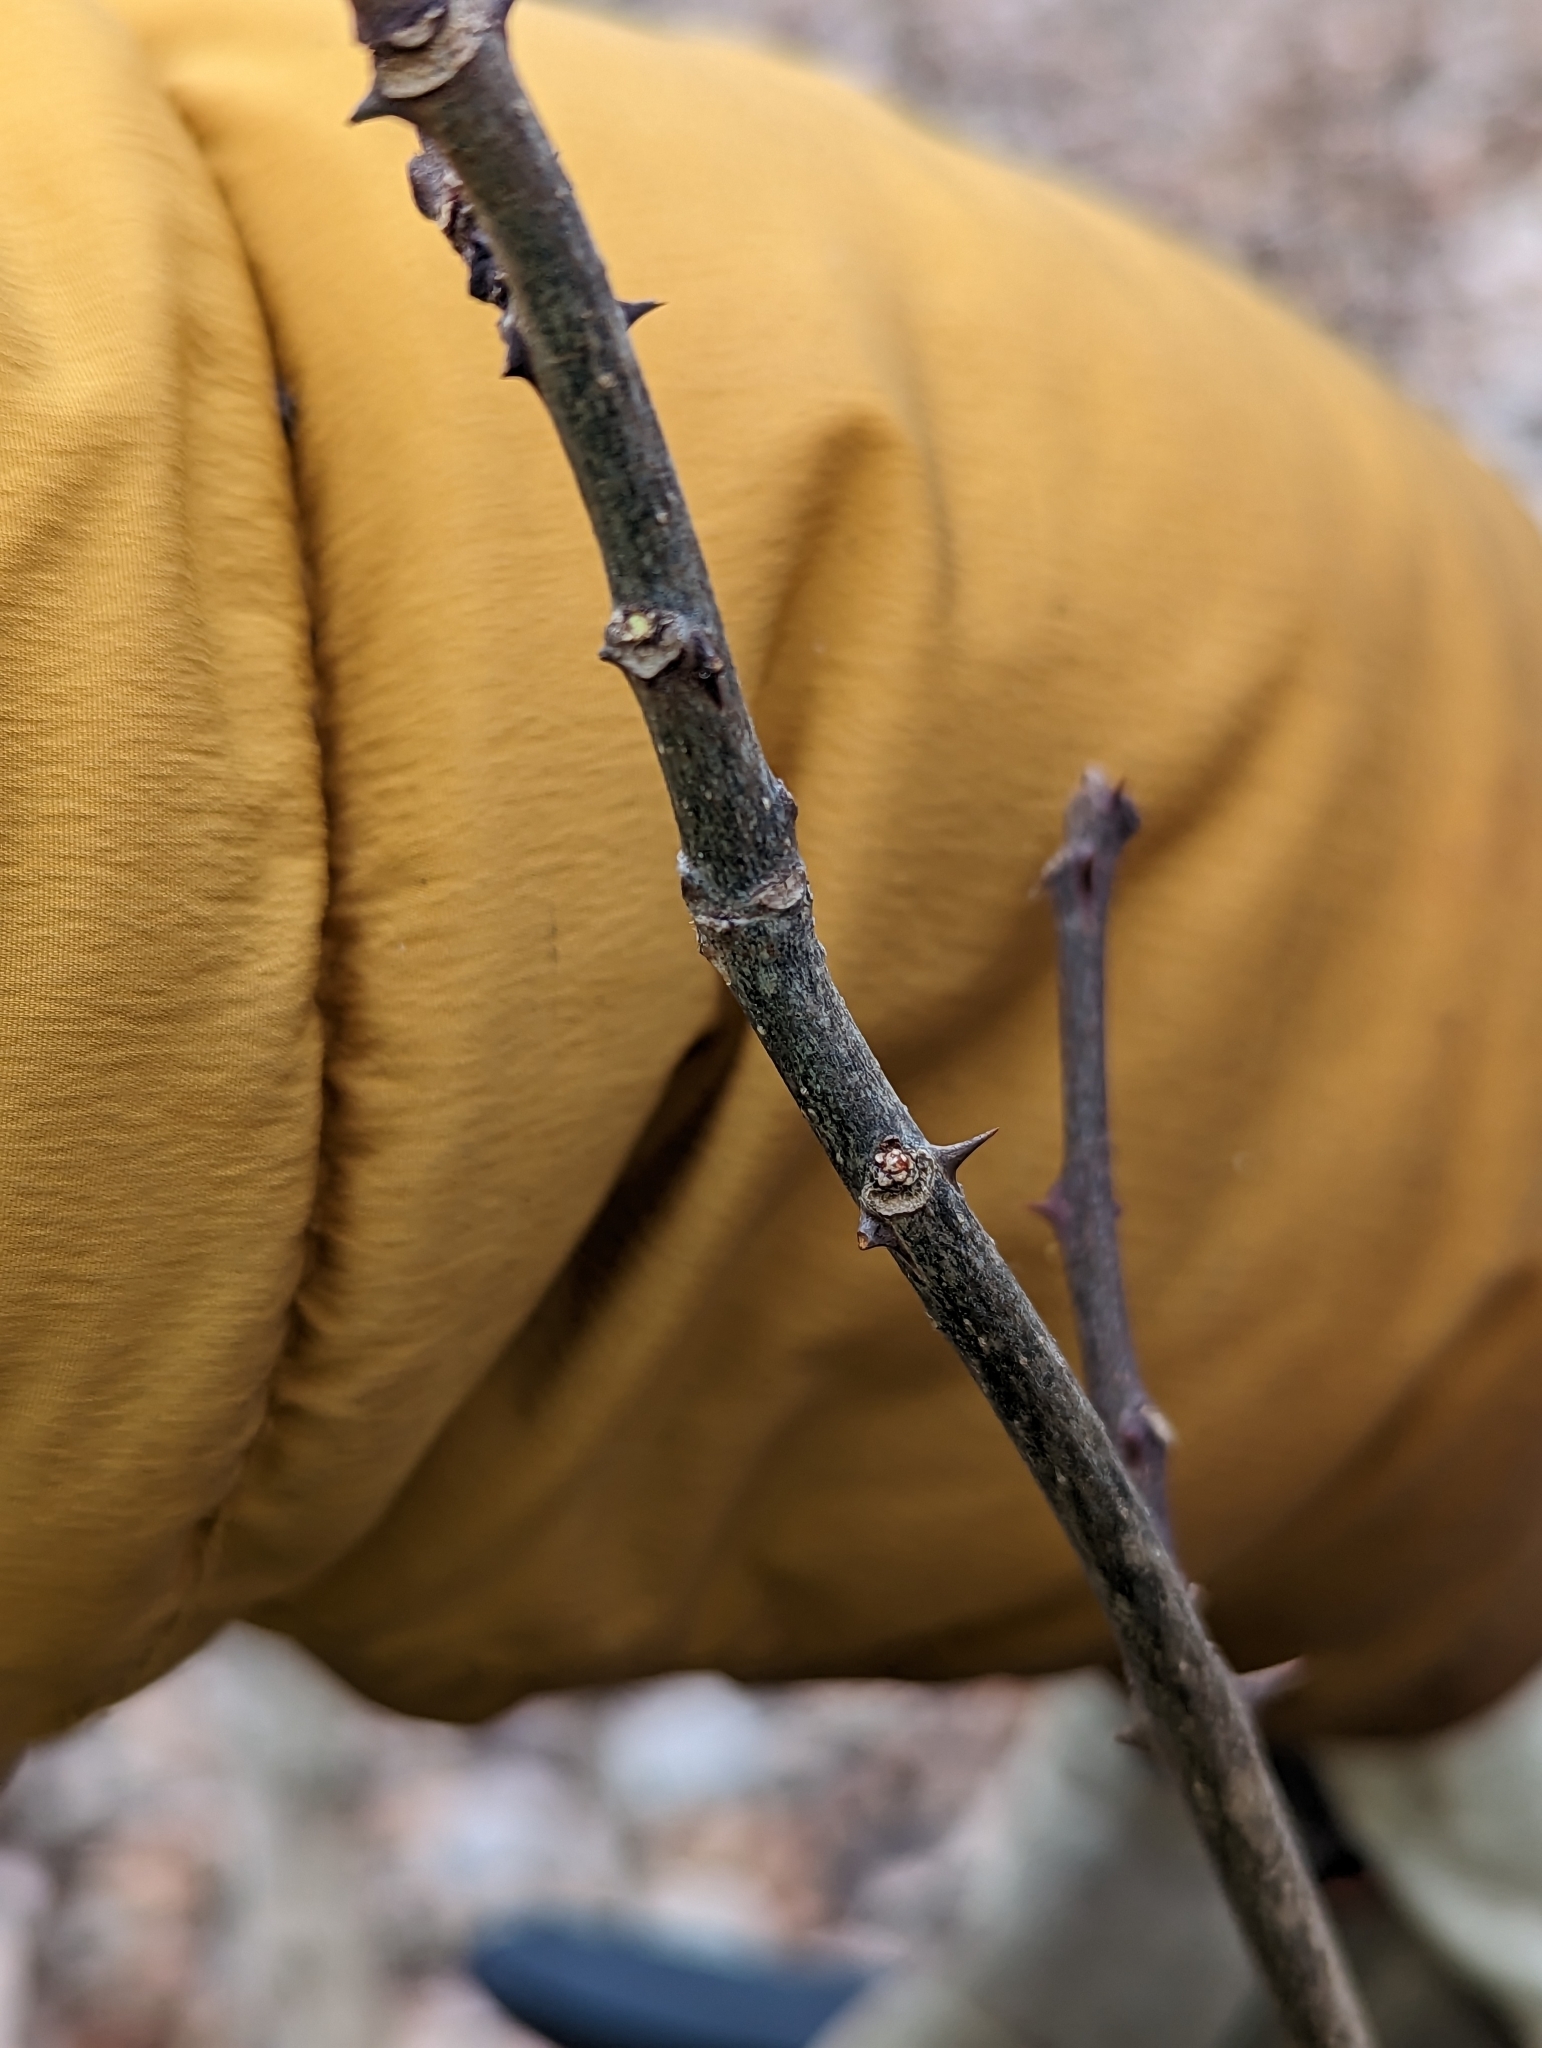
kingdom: Plantae
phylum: Tracheophyta
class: Magnoliopsida
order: Fabales
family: Fabaceae
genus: Robinia
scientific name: Robinia pseudoacacia
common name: Black locust
